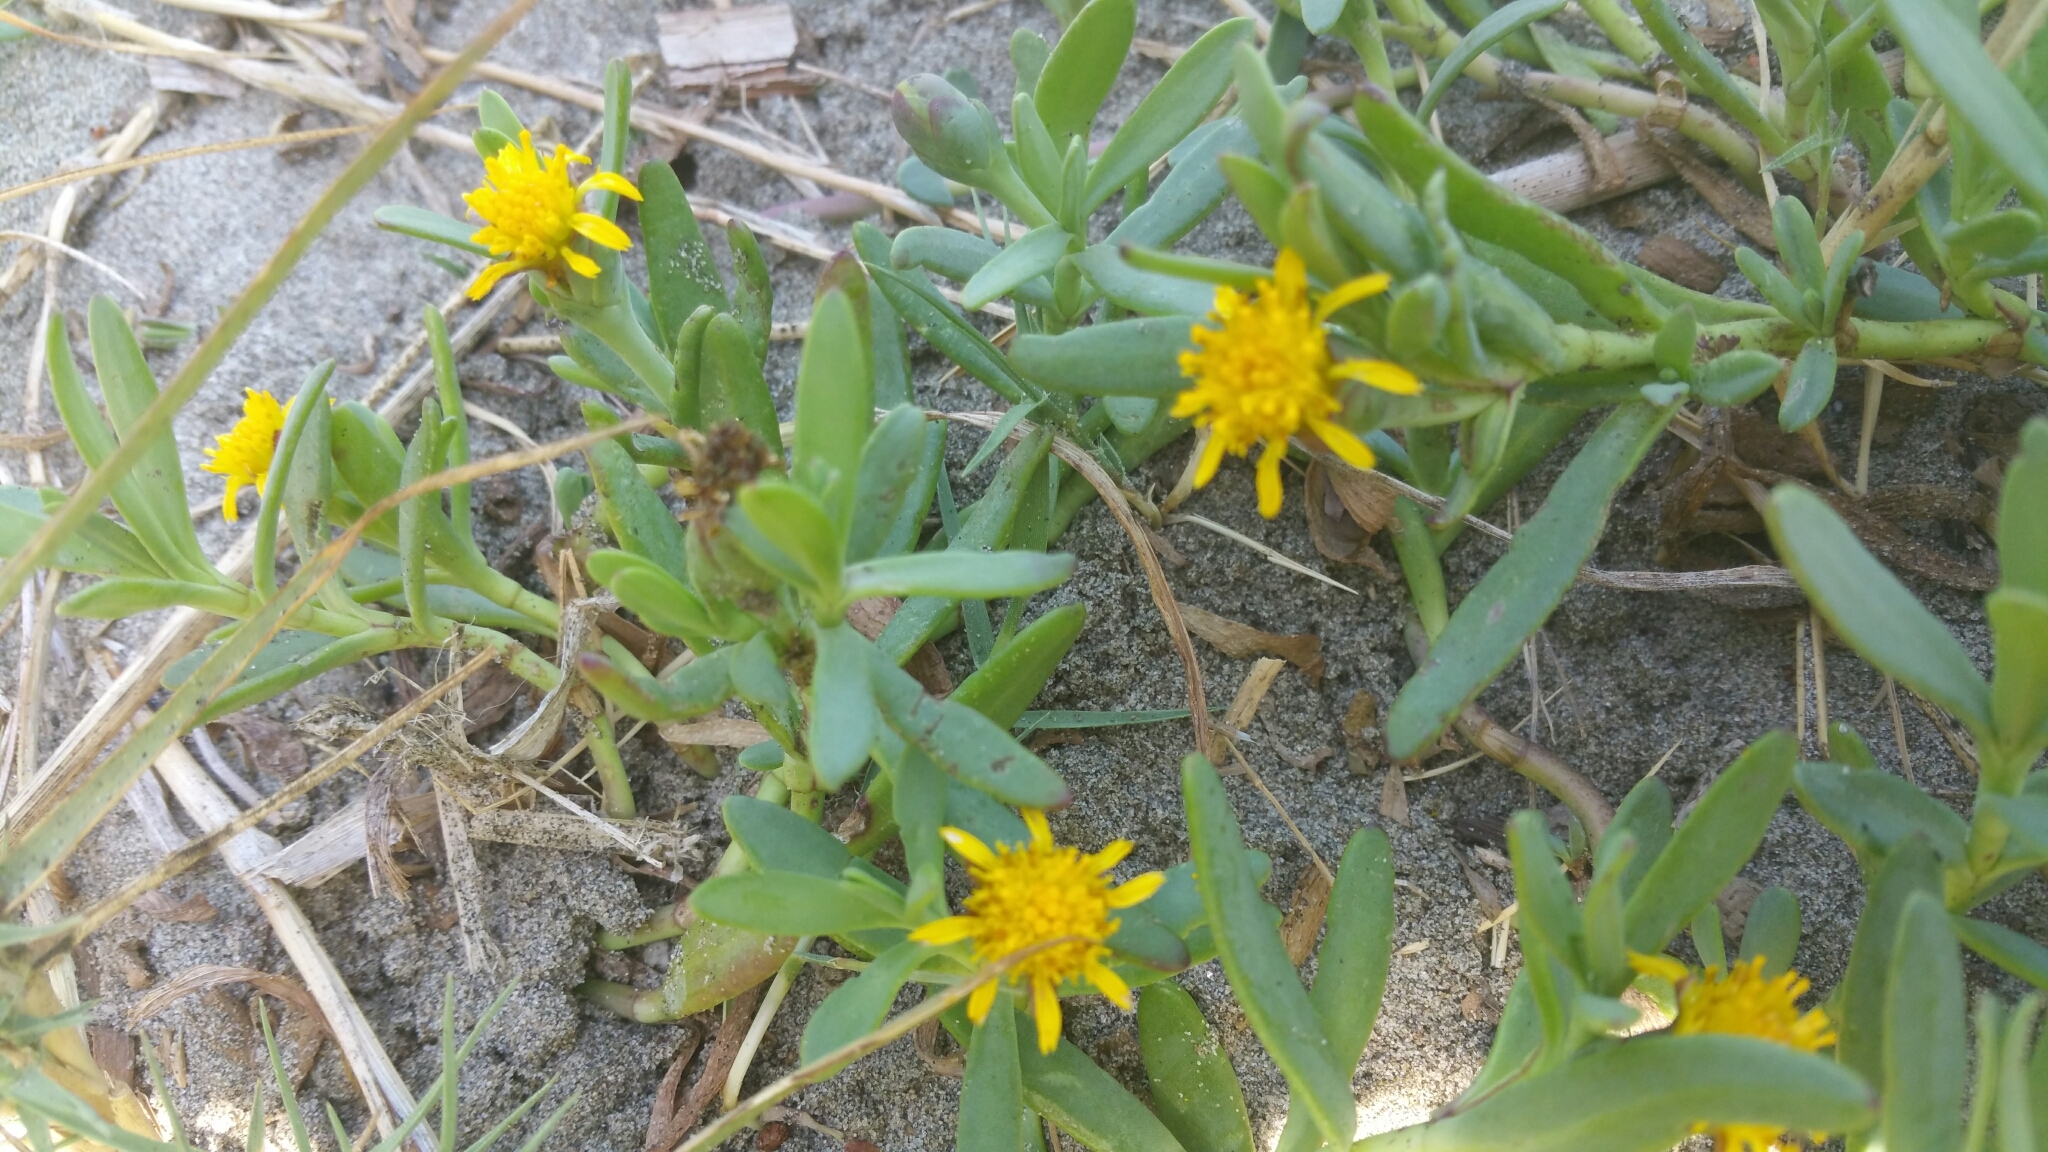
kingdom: Plantae
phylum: Tracheophyta
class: Magnoliopsida
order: Asterales
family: Asteraceae
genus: Jaumea
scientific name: Jaumea carnosa
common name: Fleshy jaumea
